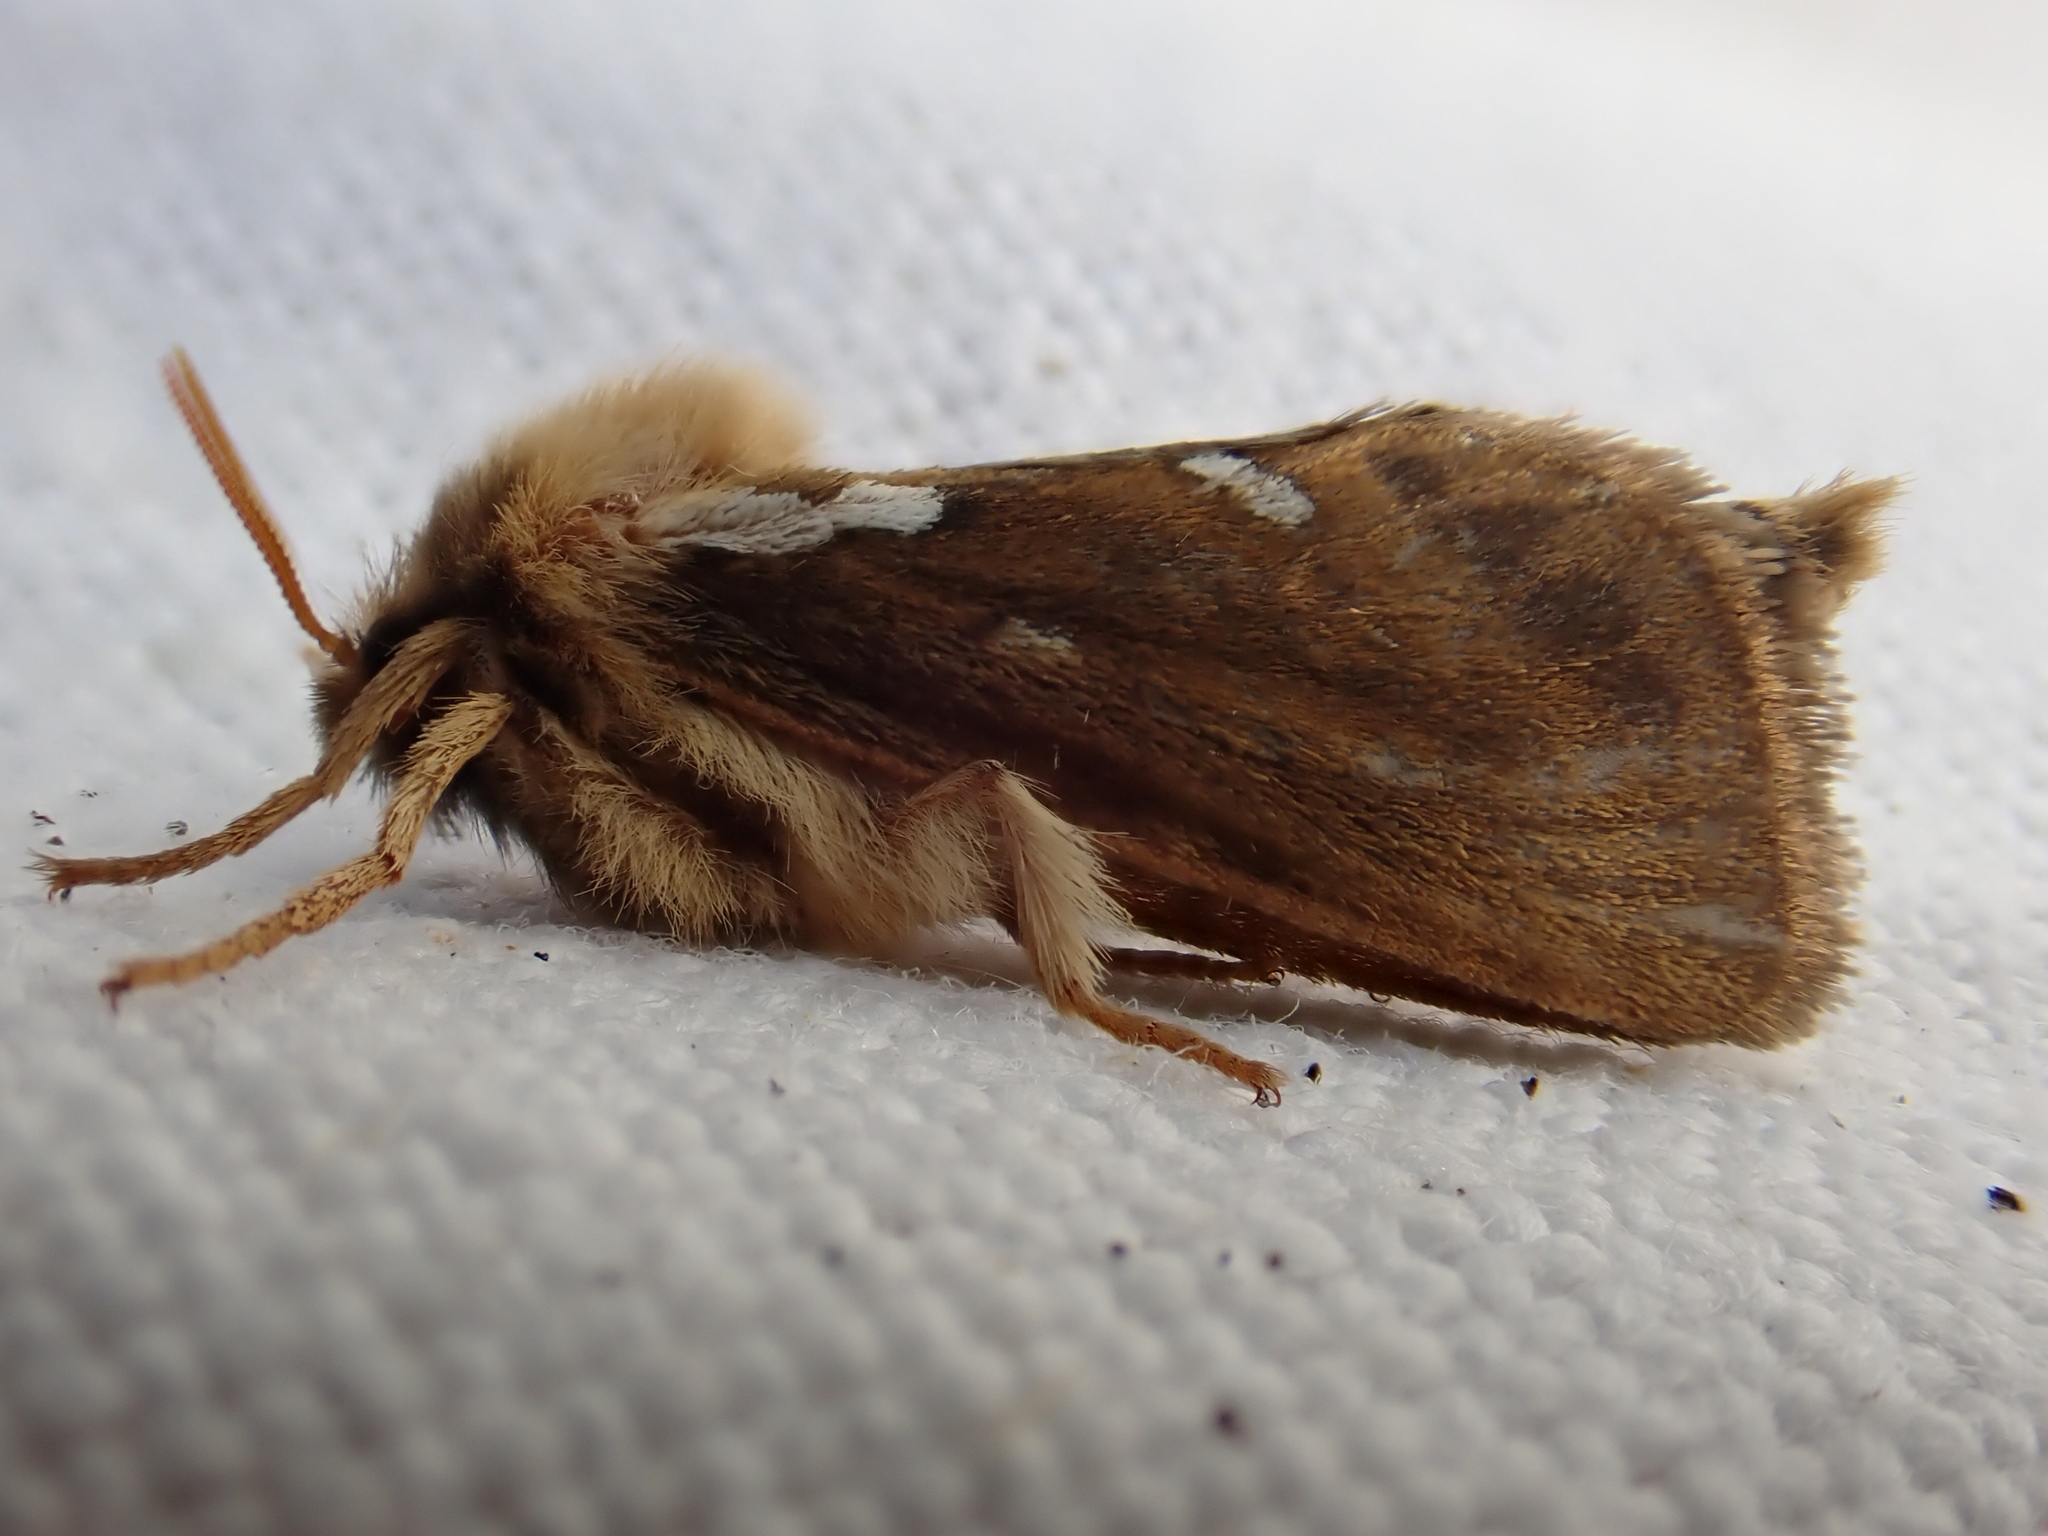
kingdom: Animalia
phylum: Arthropoda
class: Insecta
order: Lepidoptera
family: Hepialidae
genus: Korscheltellus
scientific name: Korscheltellus lupulina
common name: Common swift
